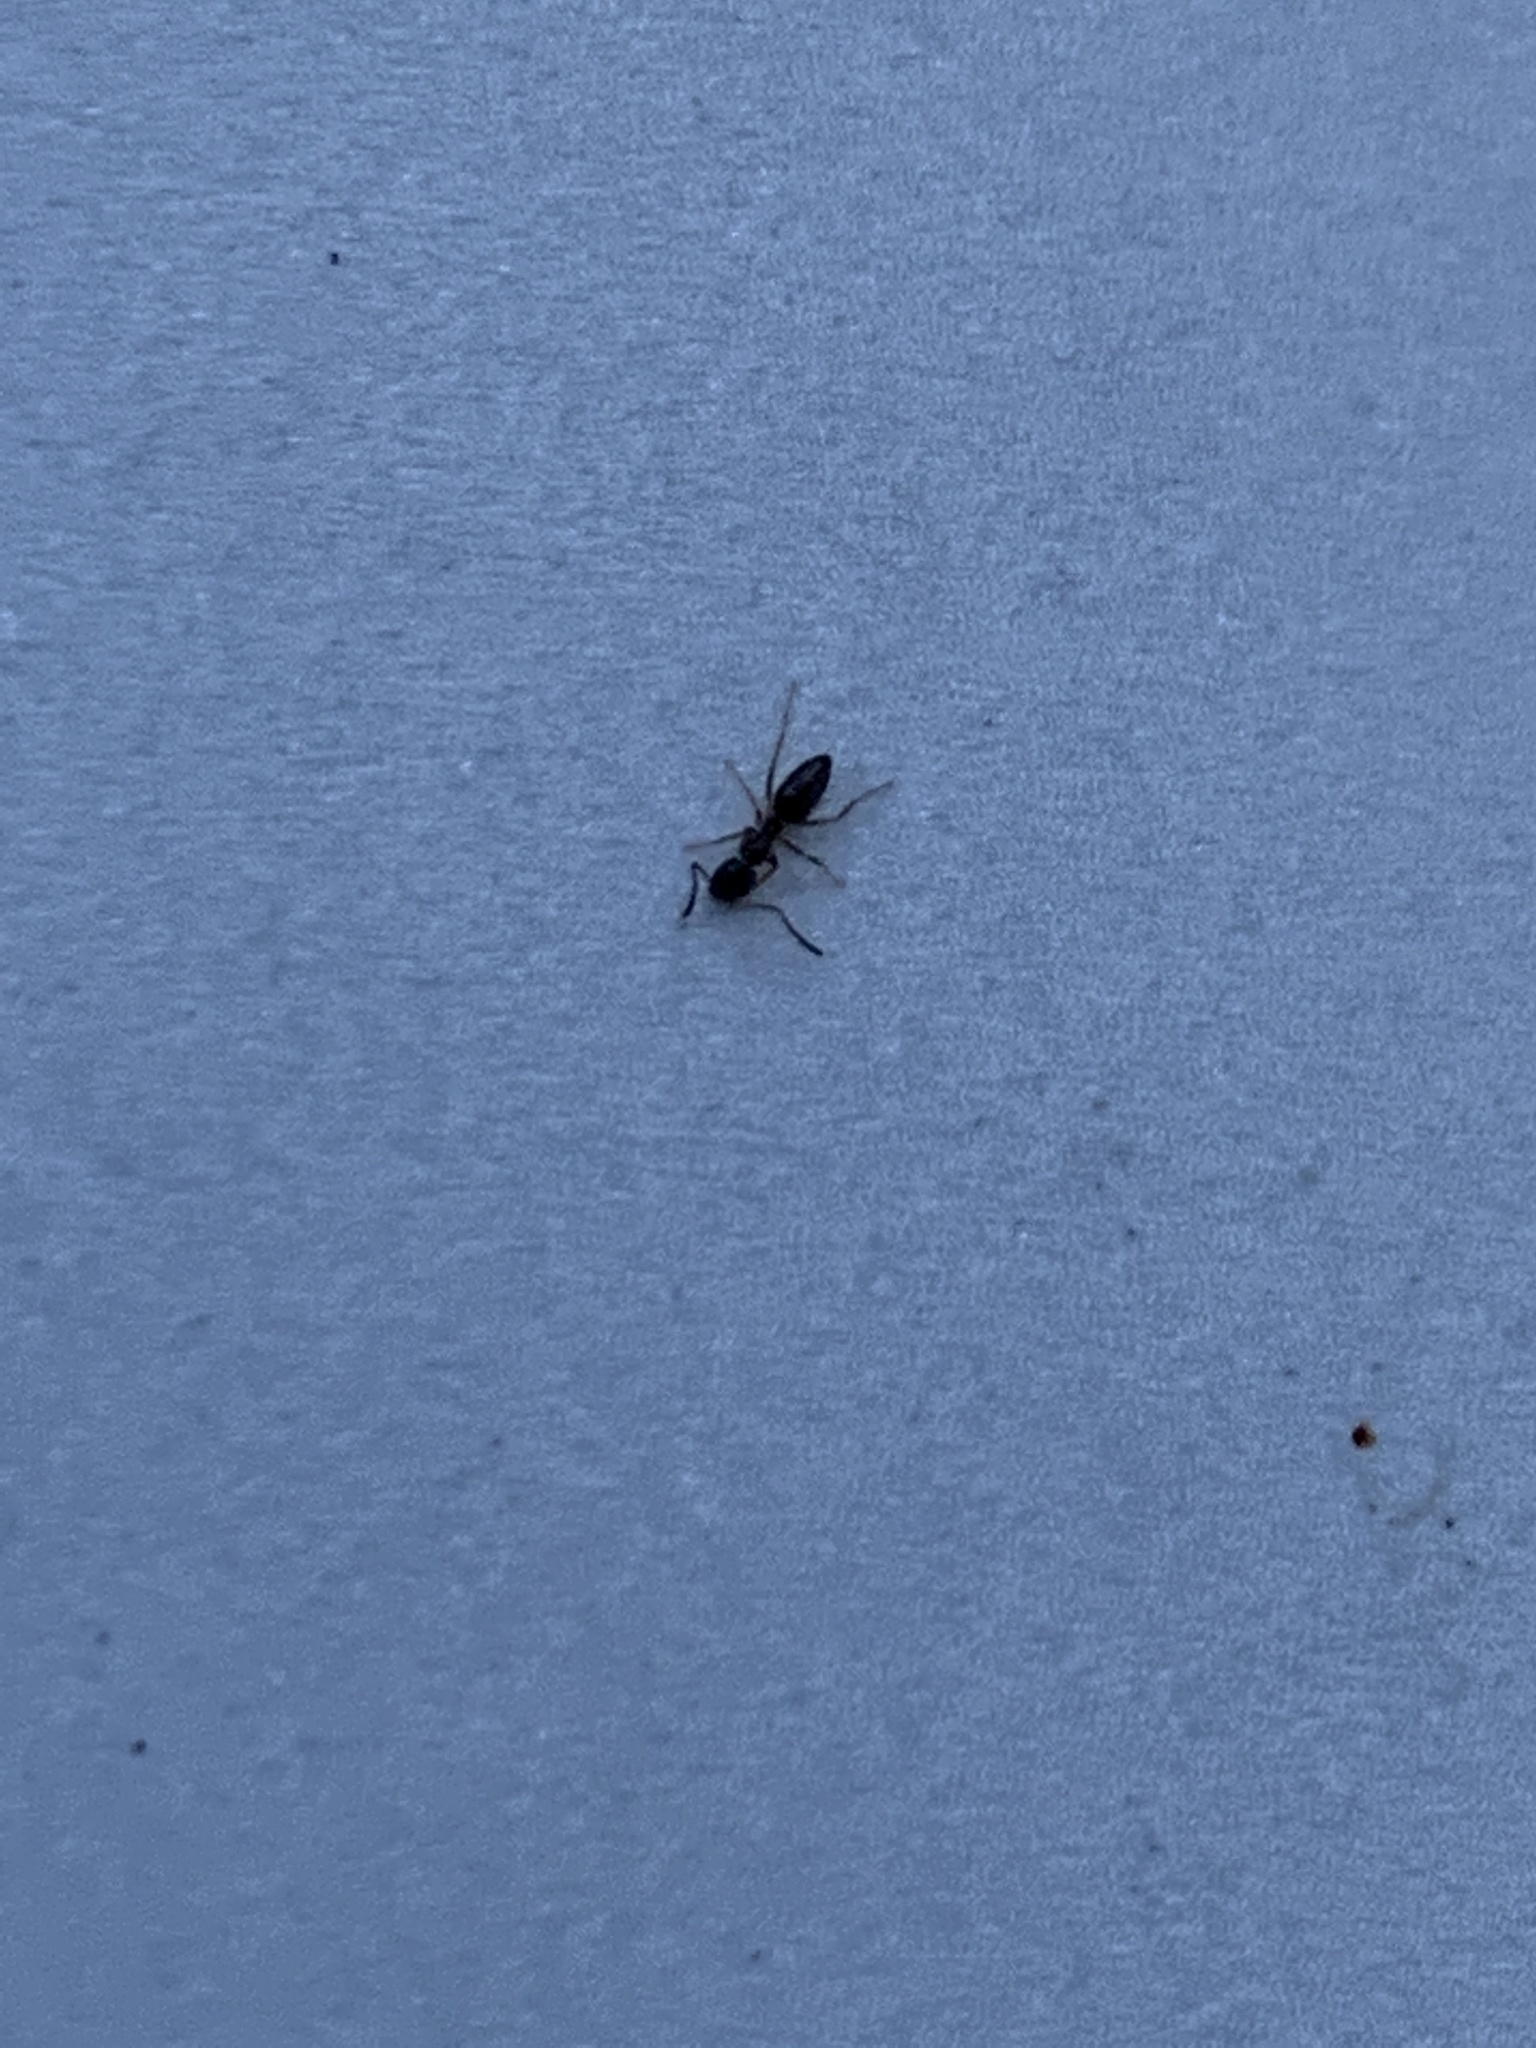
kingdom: Animalia
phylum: Arthropoda
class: Insecta
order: Hymenoptera
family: Formicidae
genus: Tapinoma
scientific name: Tapinoma sessile
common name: Odorous house ant
